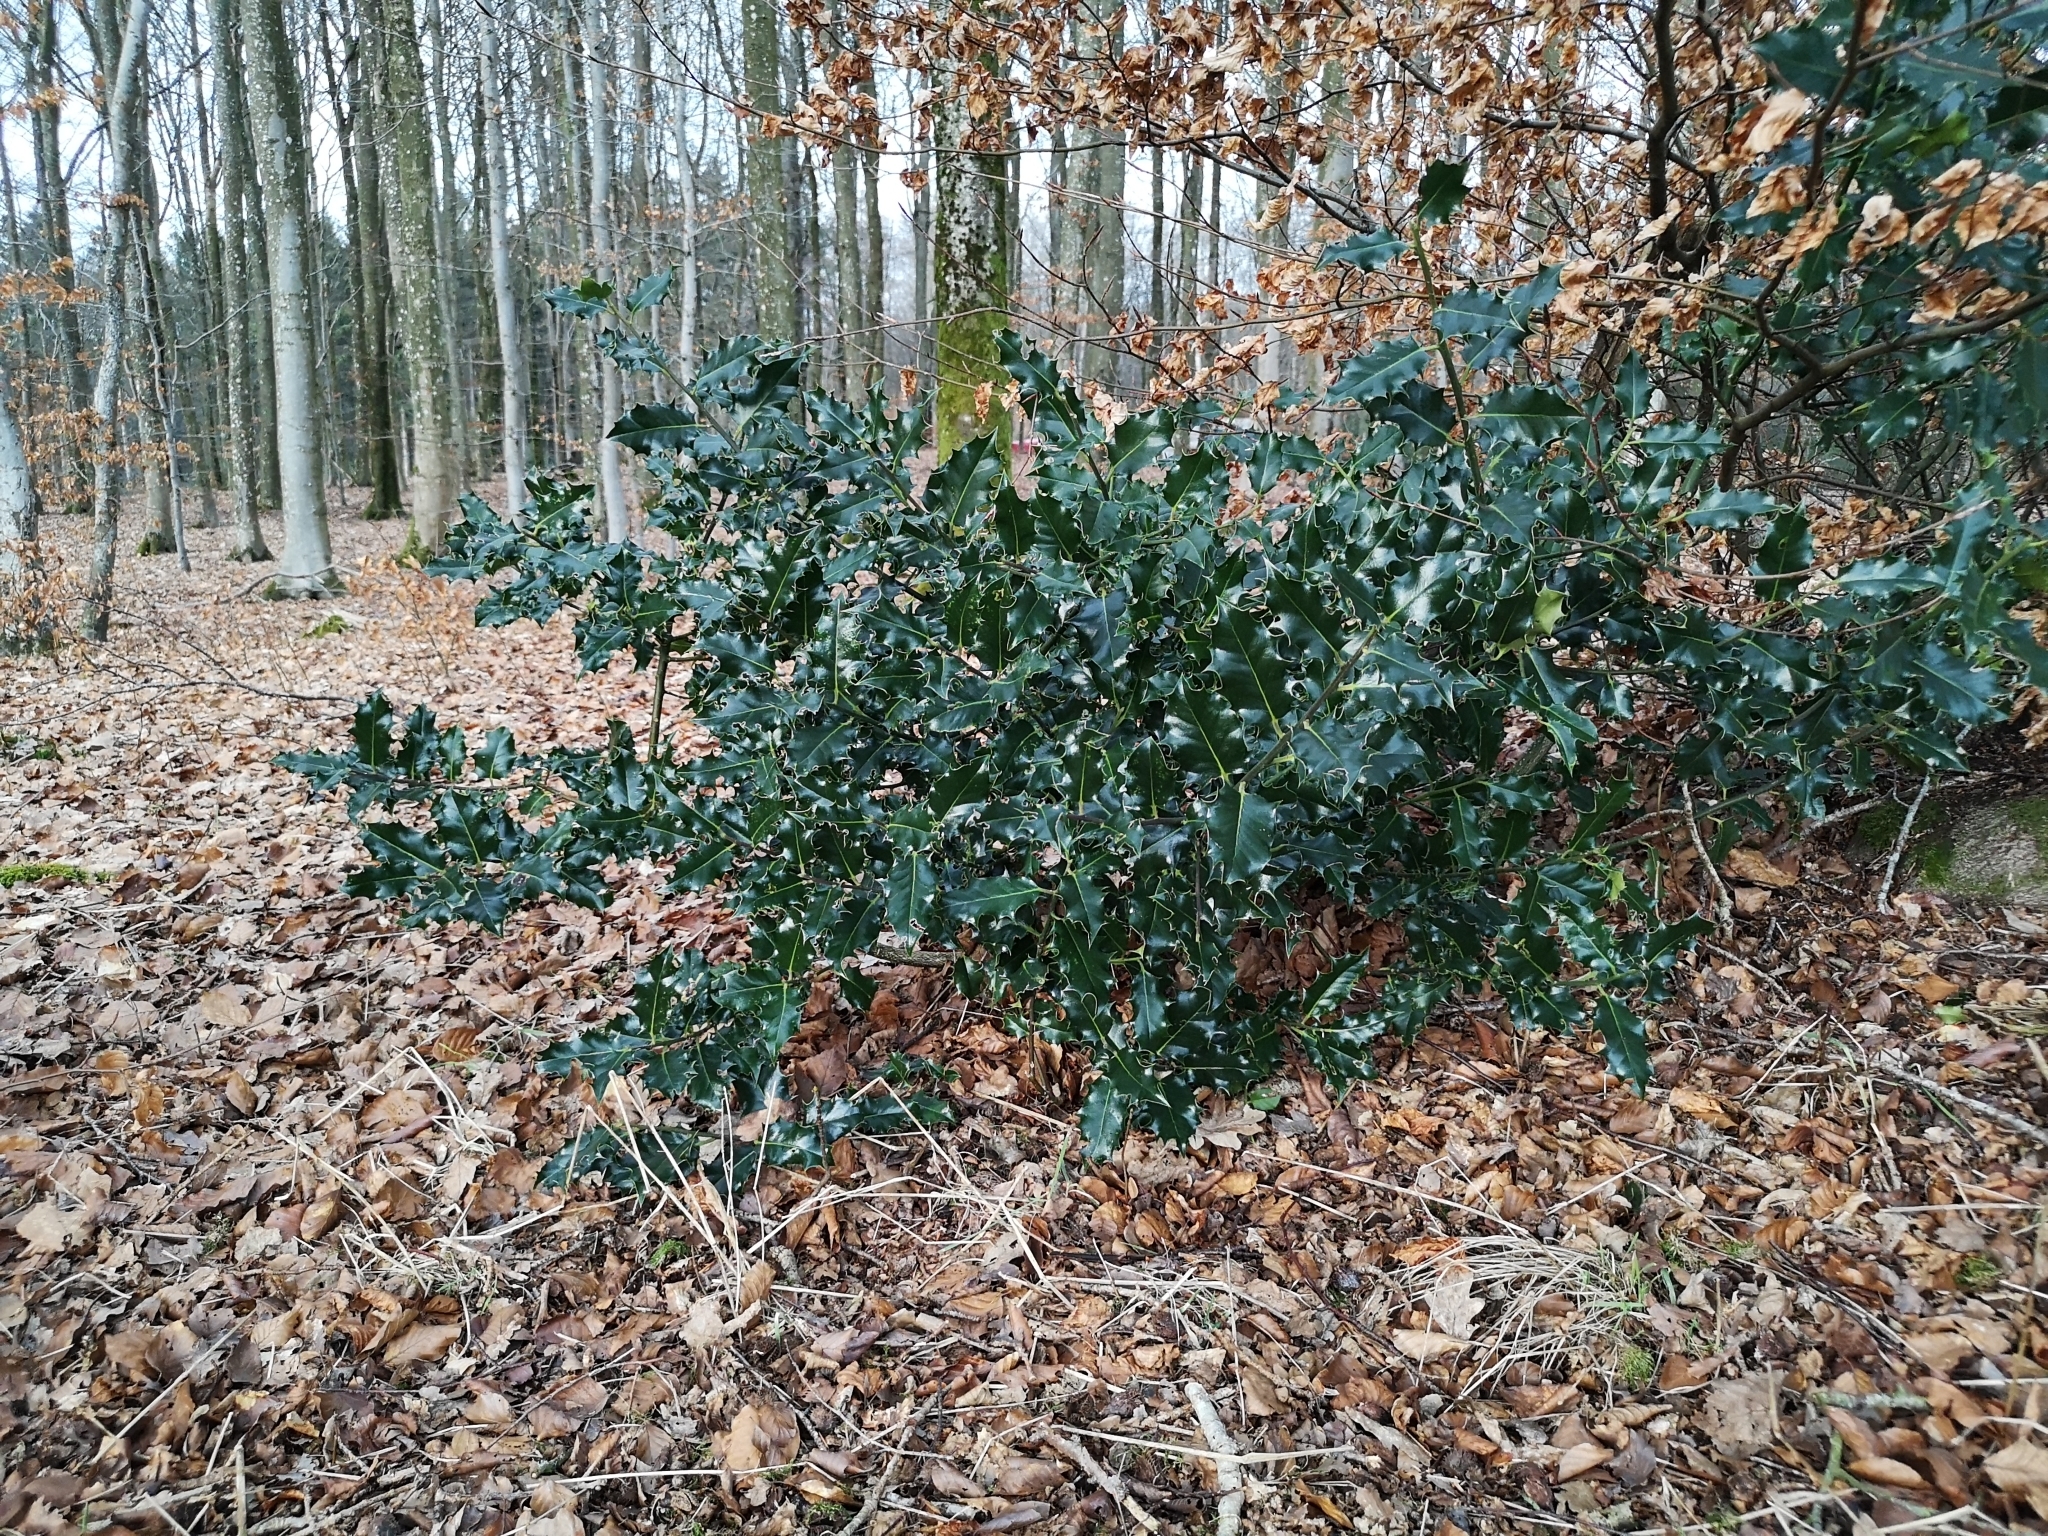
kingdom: Plantae
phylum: Tracheophyta
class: Magnoliopsida
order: Aquifoliales
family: Aquifoliaceae
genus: Ilex
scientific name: Ilex aquifolium
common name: English holly
